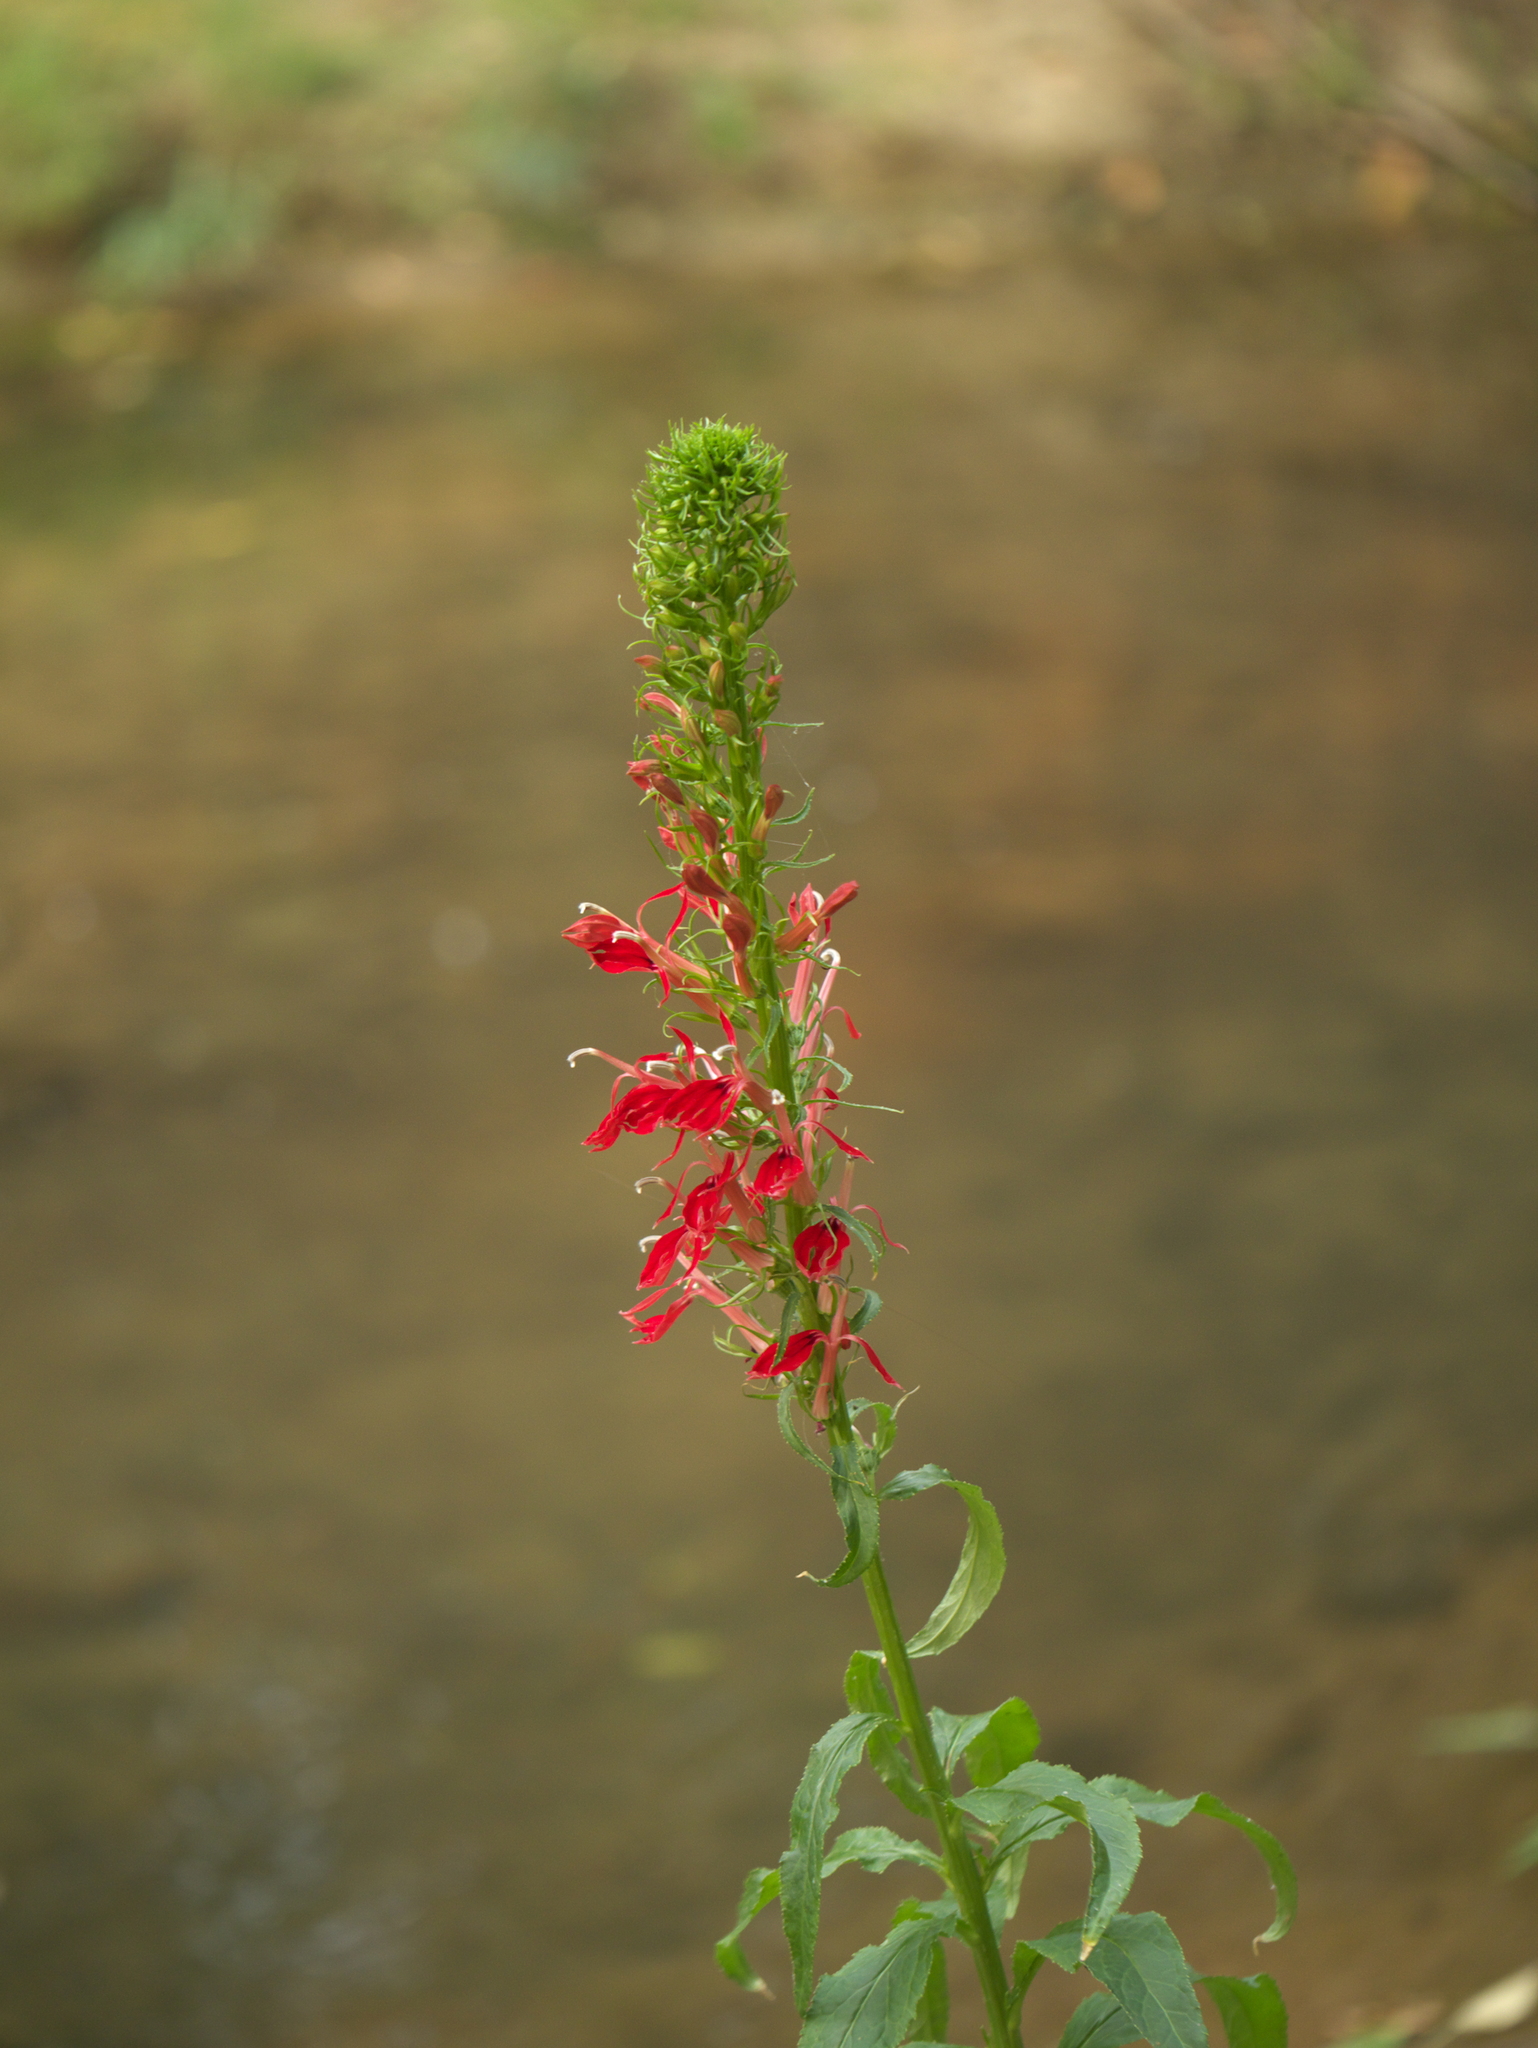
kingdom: Plantae
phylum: Tracheophyta
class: Magnoliopsida
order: Asterales
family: Campanulaceae
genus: Lobelia
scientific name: Lobelia cardinalis
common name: Cardinal flower
